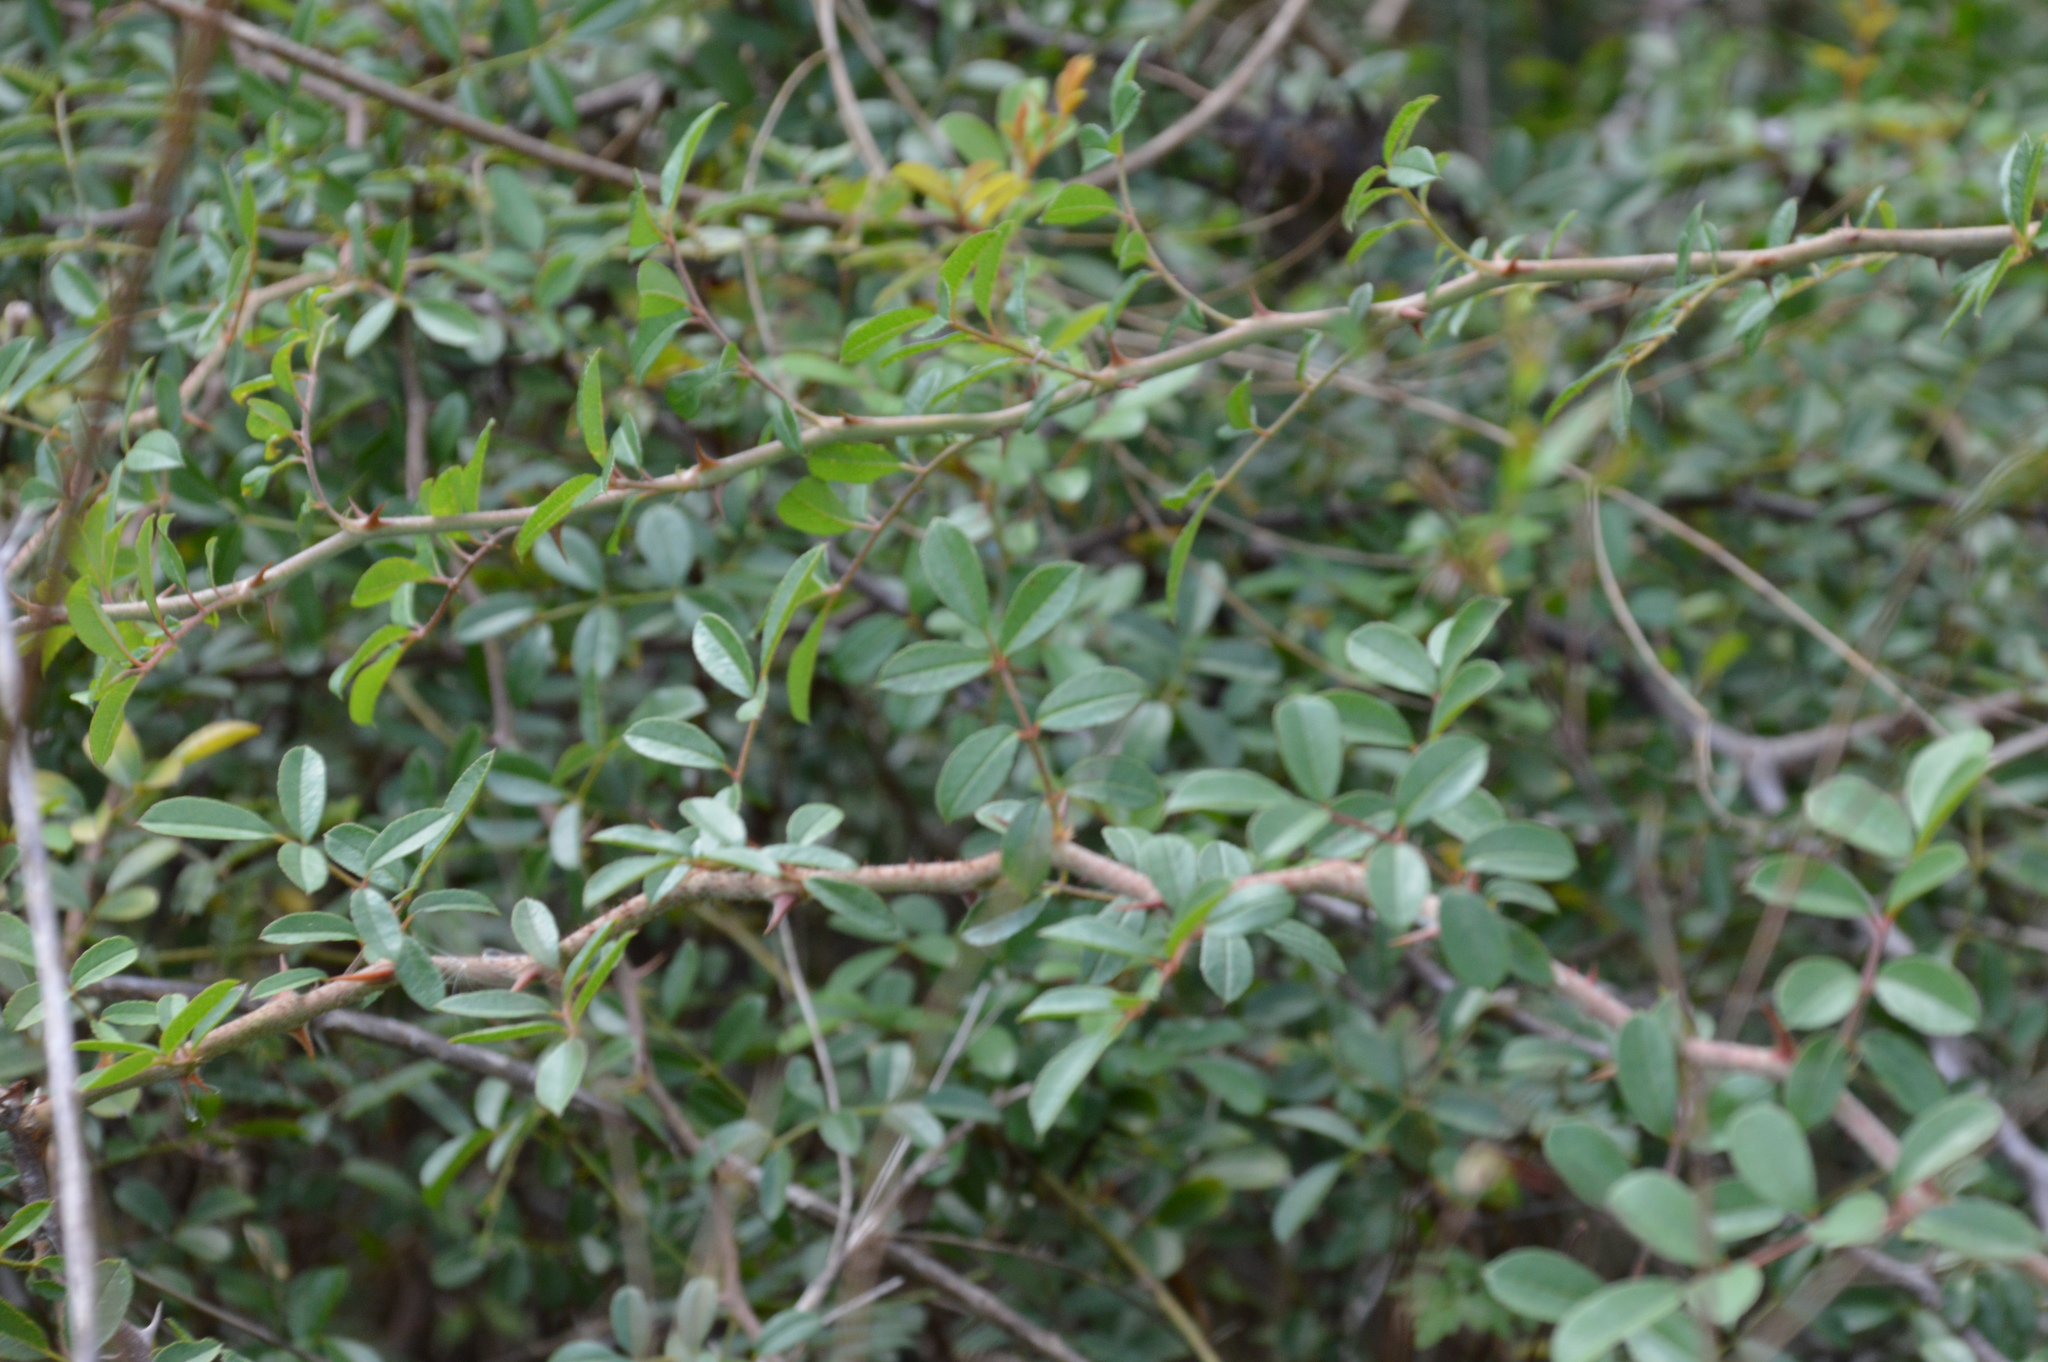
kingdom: Plantae
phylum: Tracheophyta
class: Magnoliopsida
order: Rosales
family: Rosaceae
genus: Rosa
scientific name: Rosa bracteata
